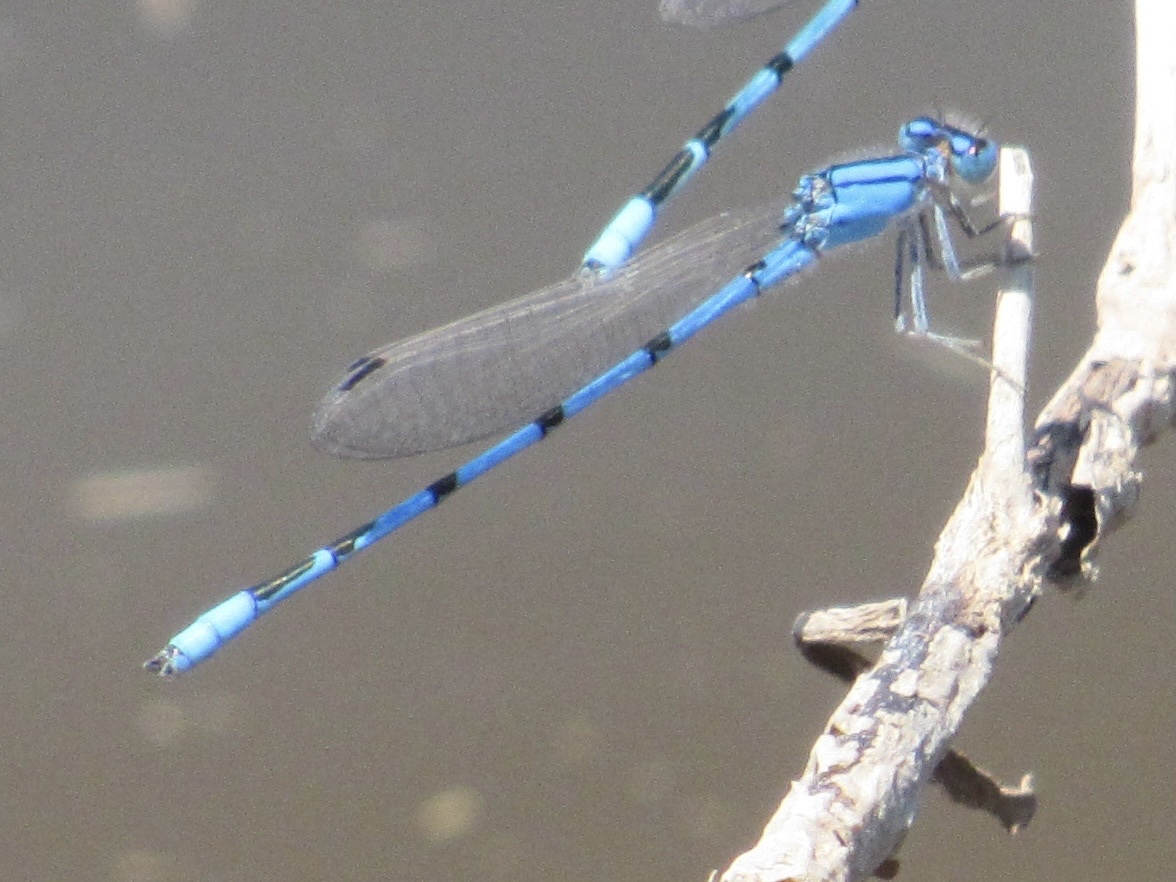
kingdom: Animalia
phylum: Arthropoda
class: Insecta
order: Odonata
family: Coenagrionidae
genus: Enallagma
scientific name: Enallagma civile
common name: Damselfly
